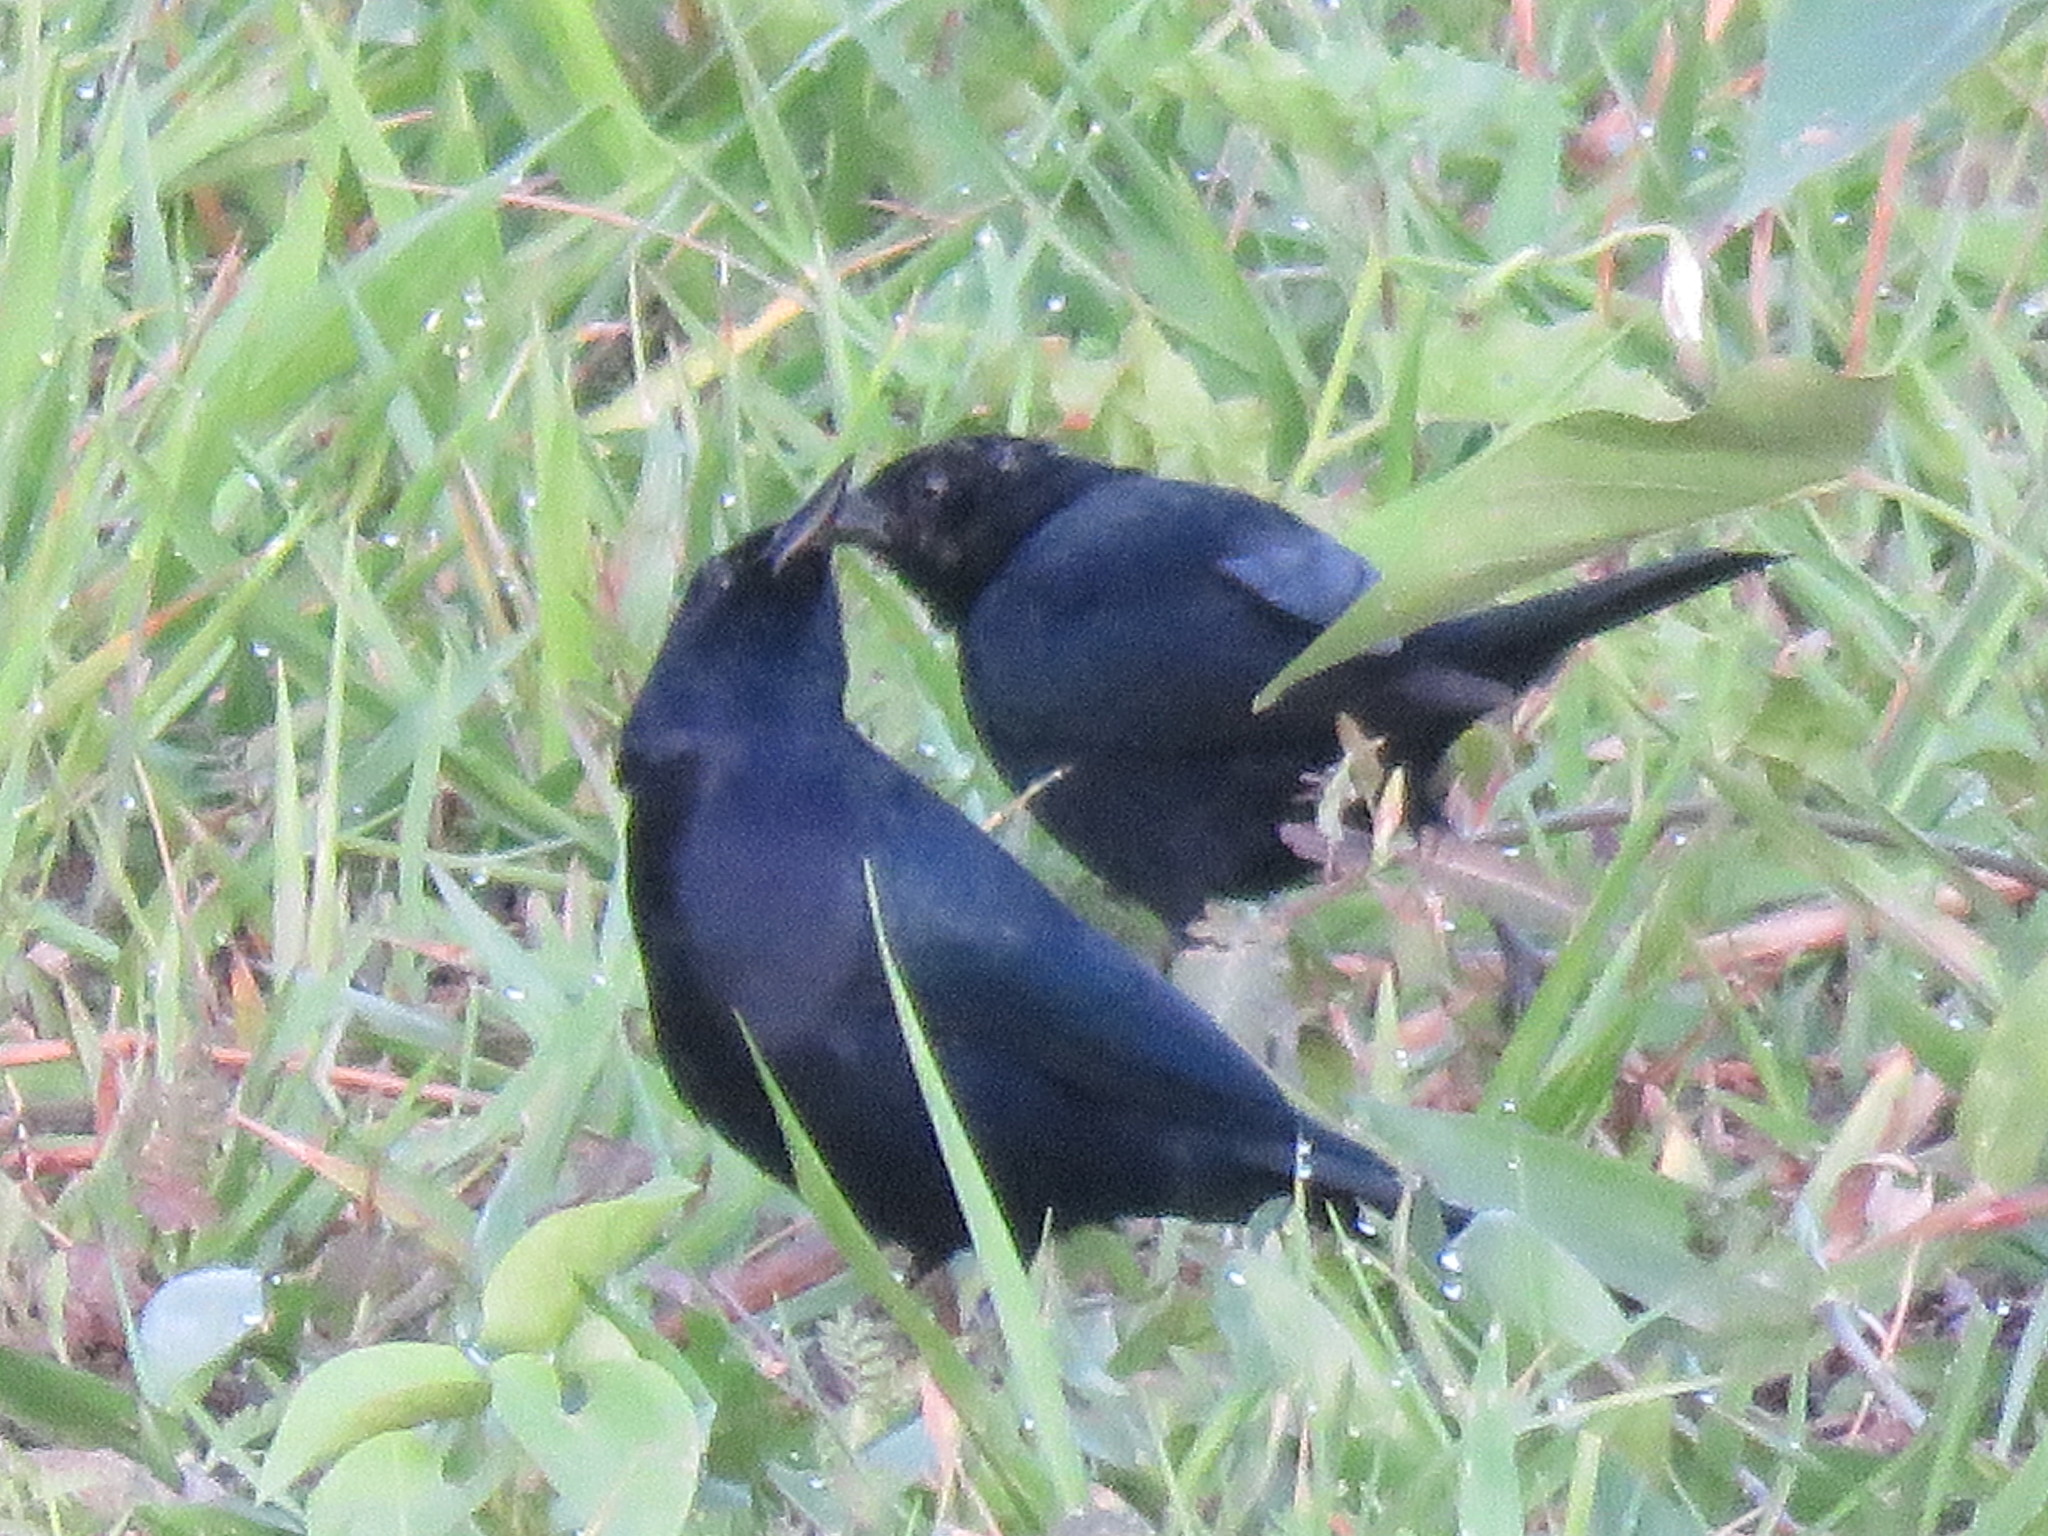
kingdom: Animalia
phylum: Chordata
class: Aves
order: Passeriformes
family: Icteridae
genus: Lampropsar
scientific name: Lampropsar tanagrinus
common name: Velvet-fronted grackle
